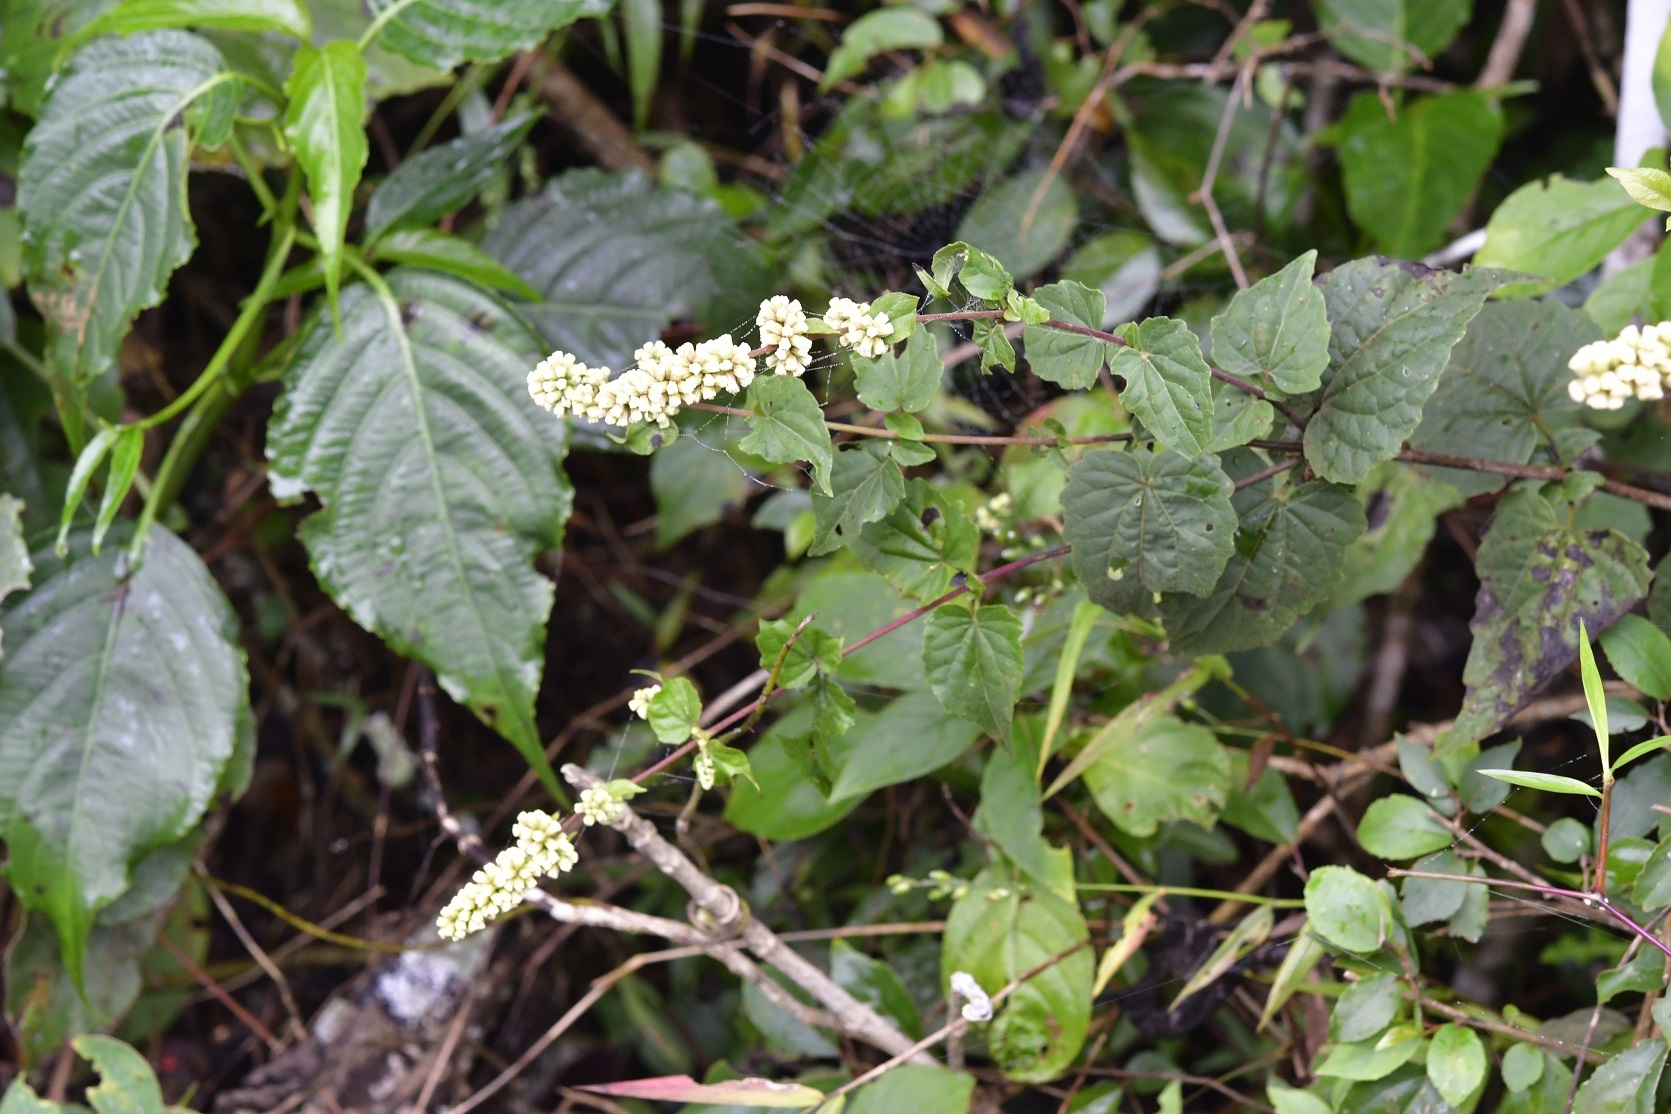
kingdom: Plantae
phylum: Tracheophyta
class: Magnoliopsida
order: Asterales
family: Asteraceae
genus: Koanophyllon
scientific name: Koanophyllon ravenii
